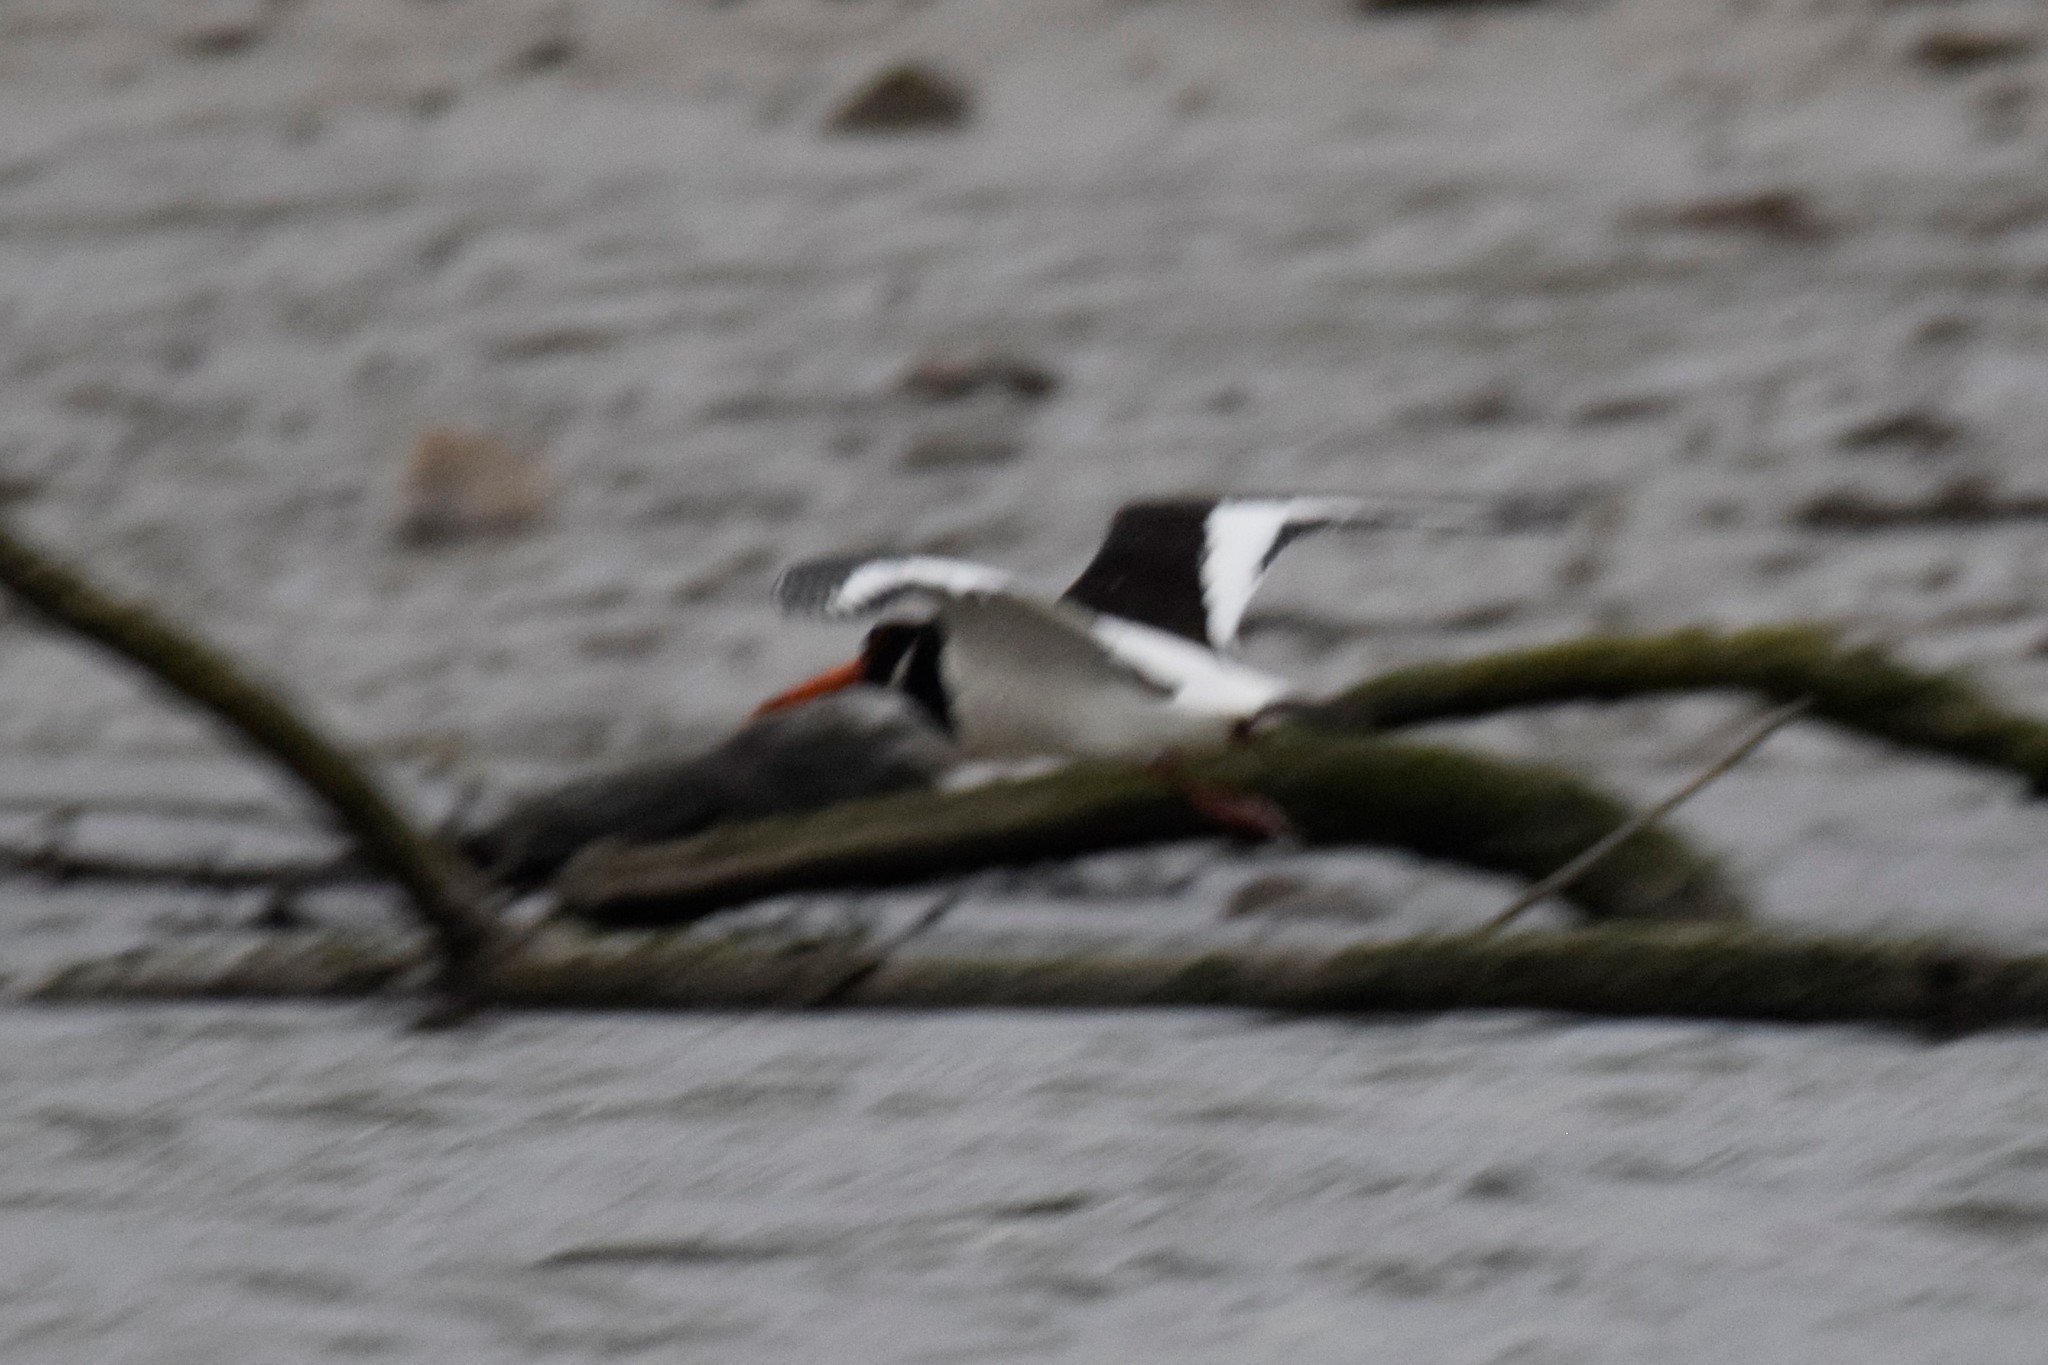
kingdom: Animalia
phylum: Chordata
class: Aves
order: Charadriiformes
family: Haematopodidae
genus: Haematopus
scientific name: Haematopus ostralegus
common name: Eurasian oystercatcher
